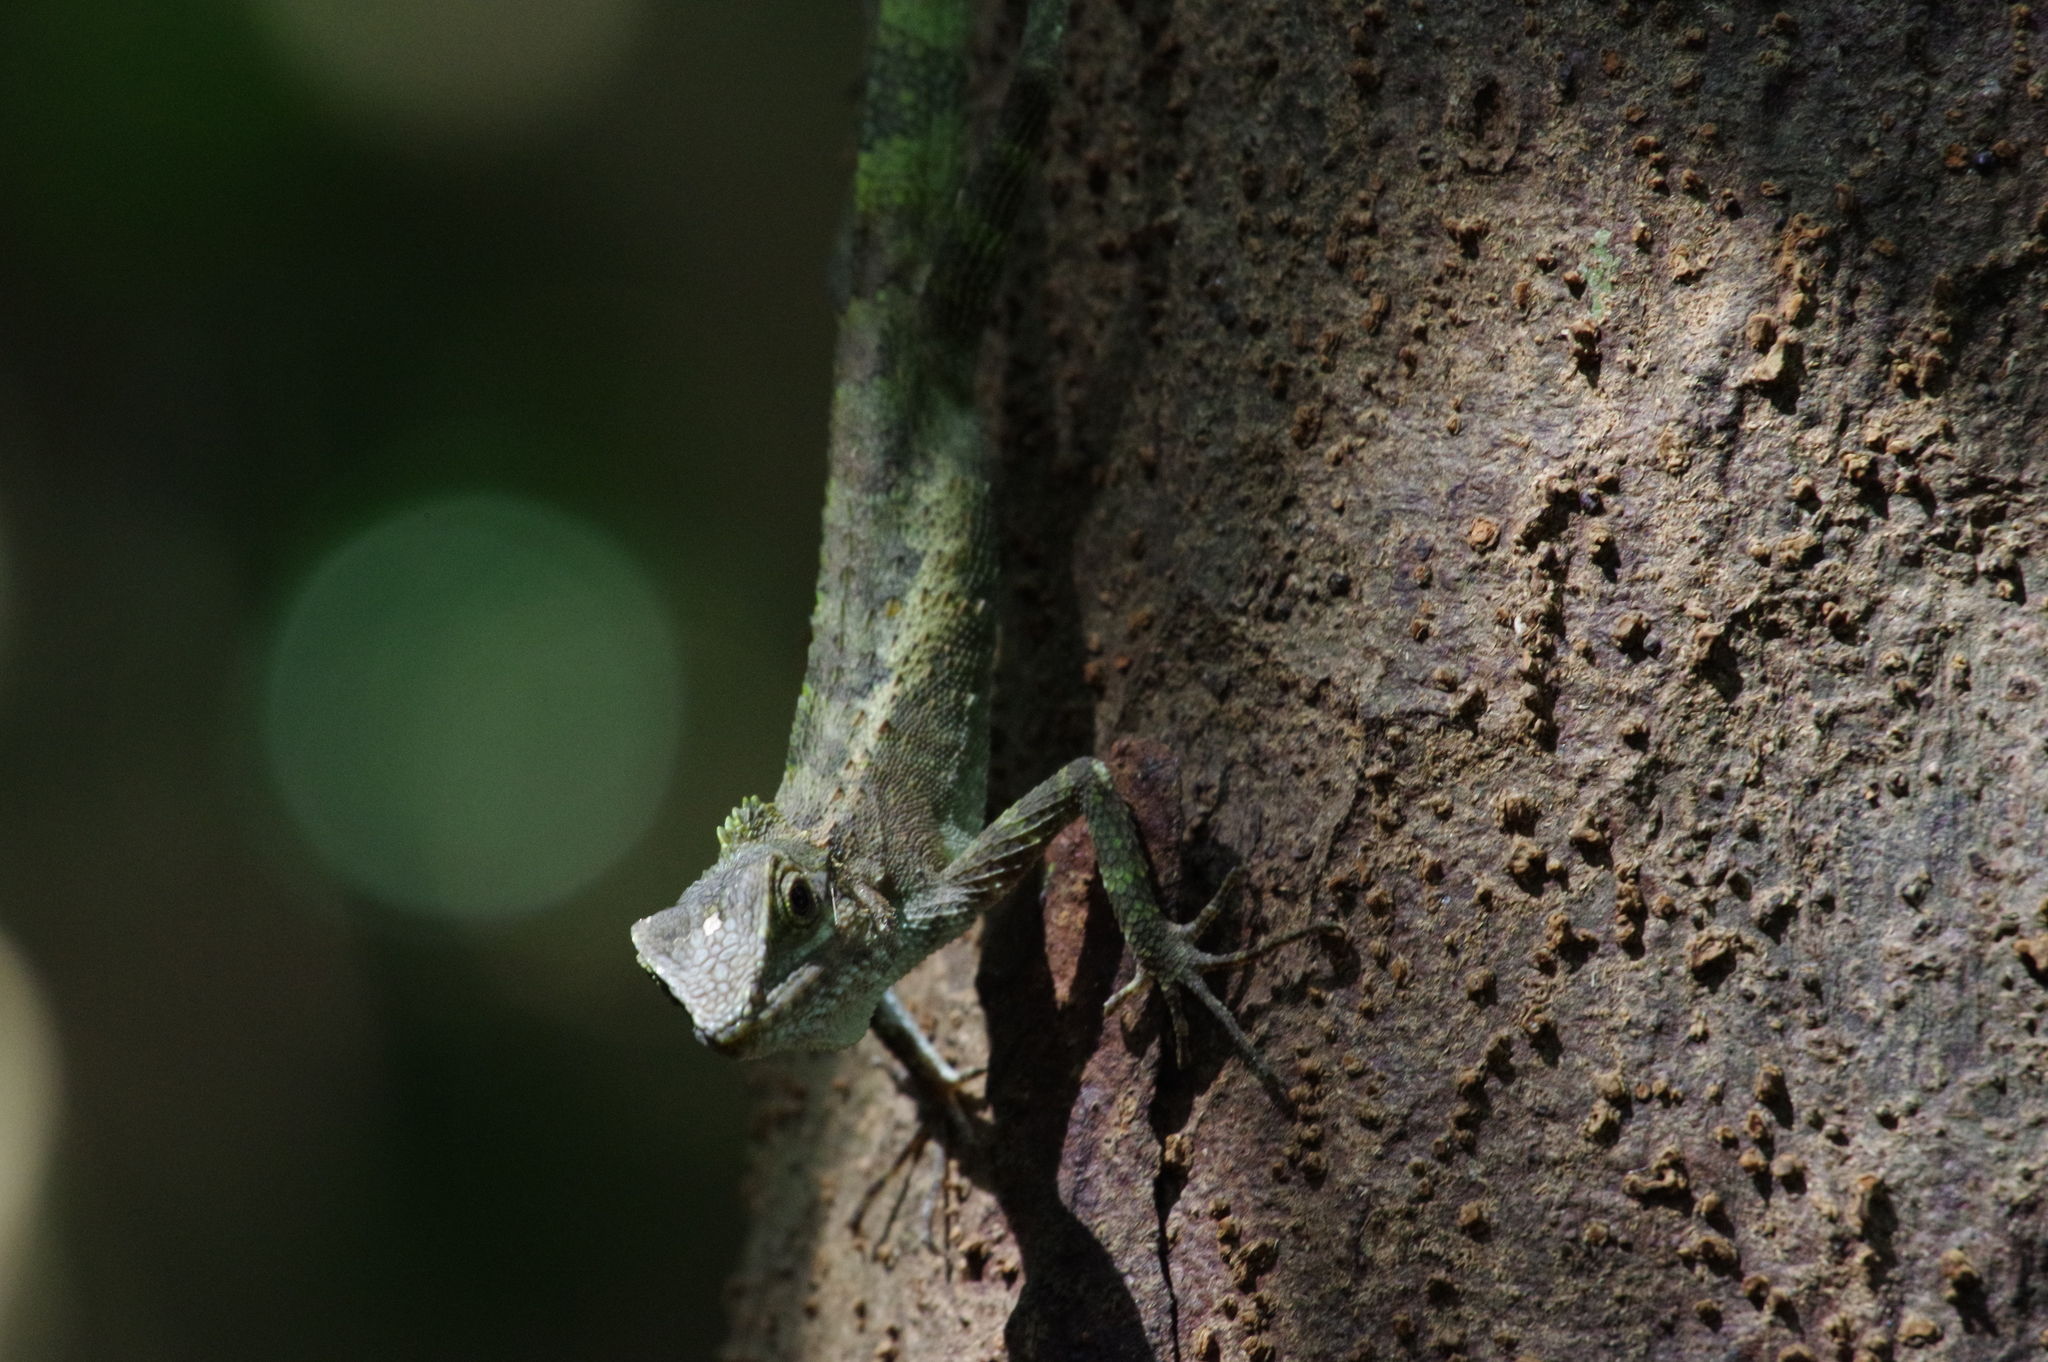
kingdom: Fungi
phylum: Basidiomycota
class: Agaricomycetes
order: Boletales
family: Diplocystidiaceae
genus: Diploderma
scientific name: Diploderma polygonatum
